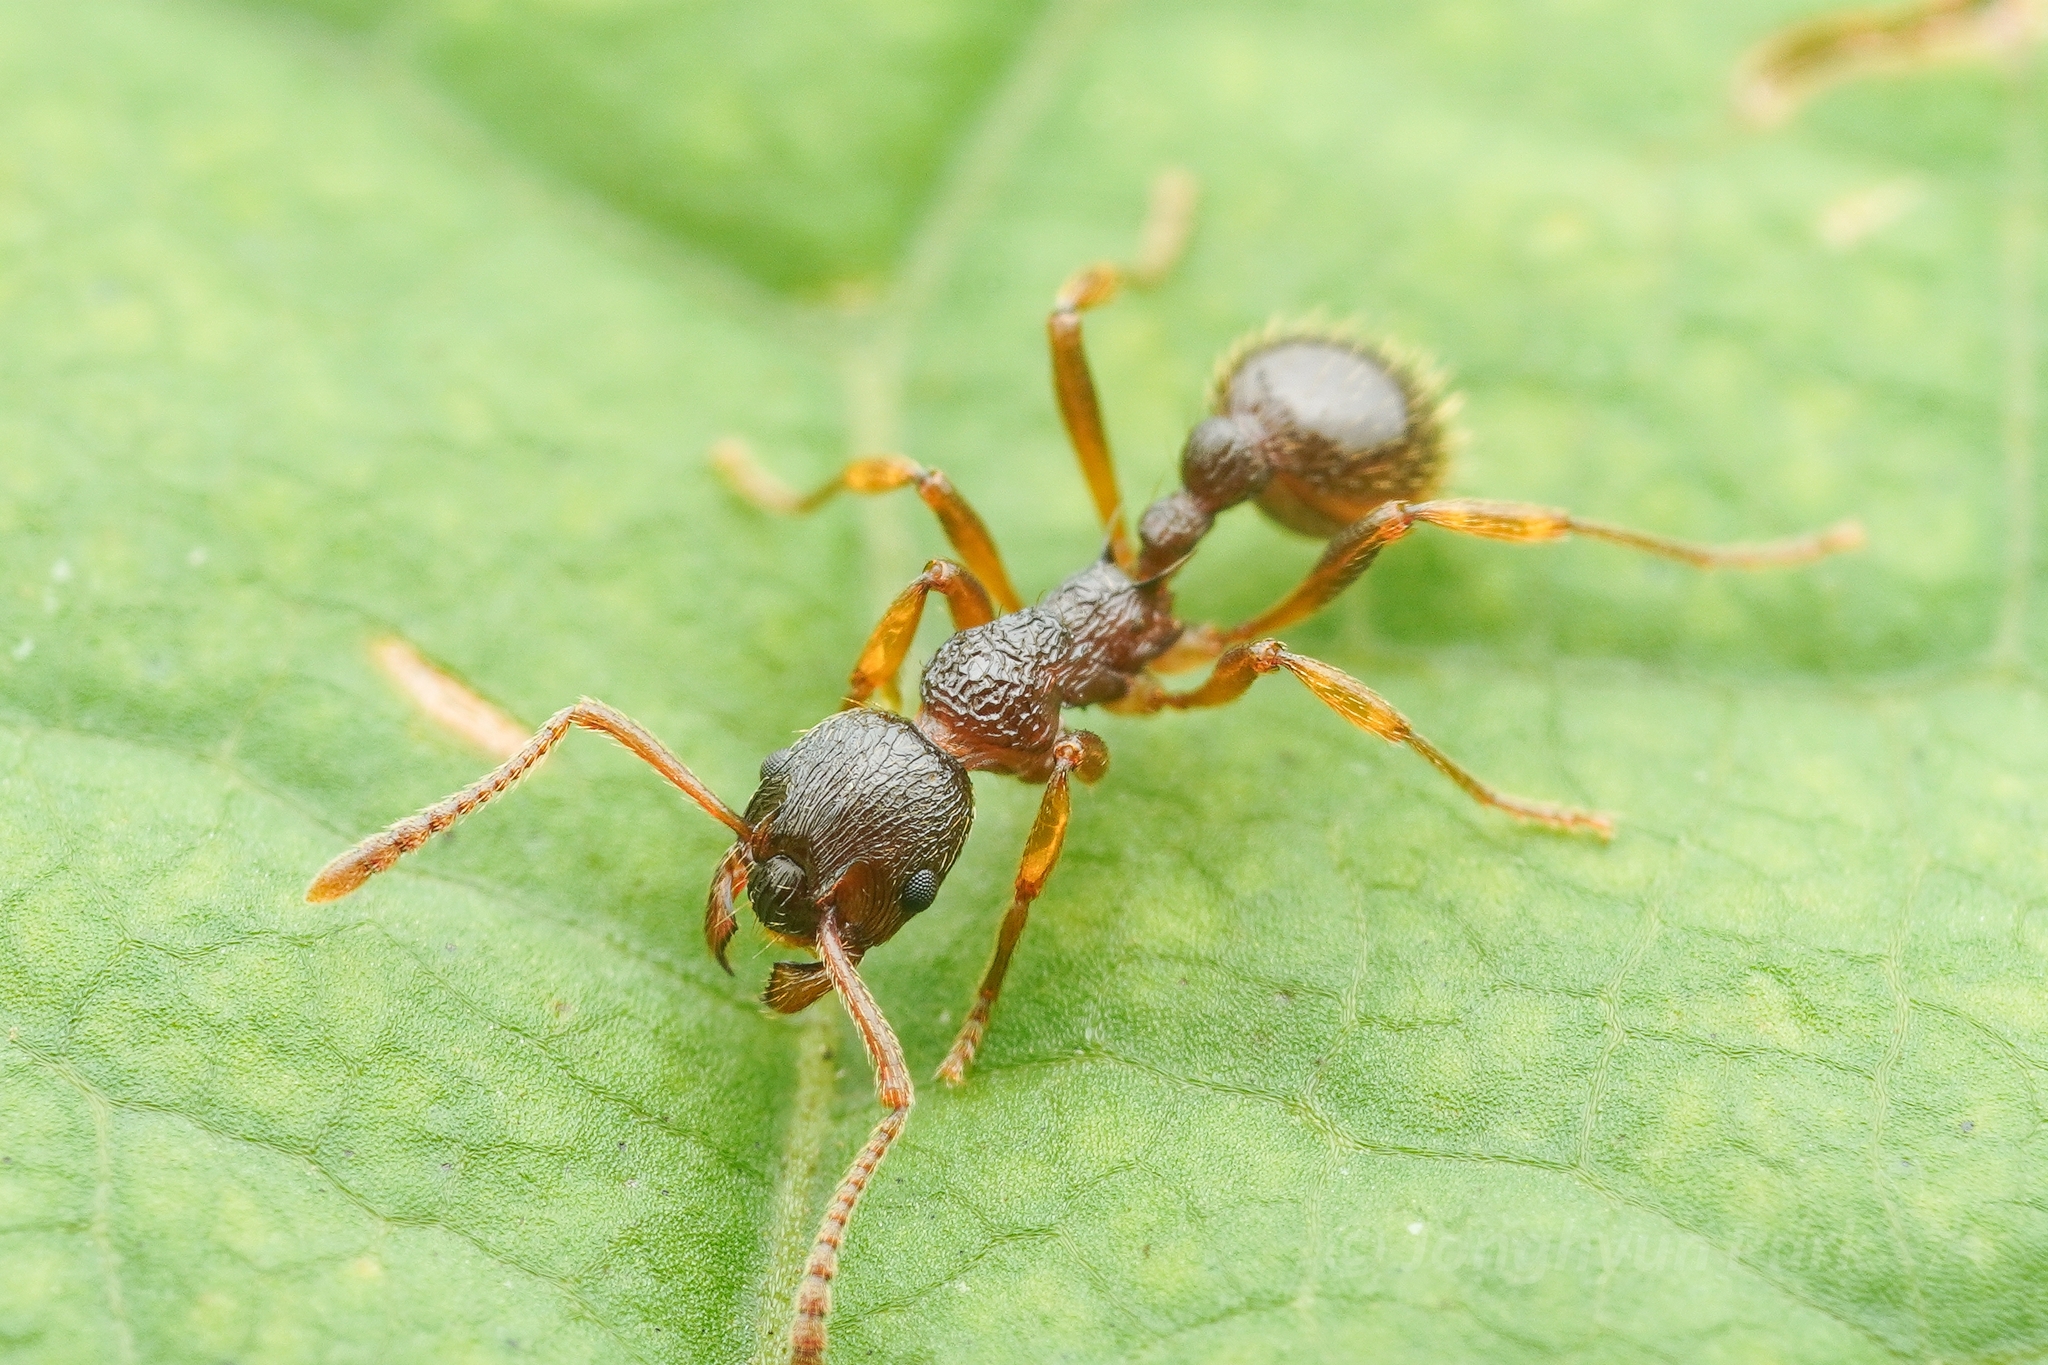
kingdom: Animalia
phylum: Arthropoda
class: Insecta
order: Hymenoptera
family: Formicidae
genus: Myrmica
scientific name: Myrmica kotokui
